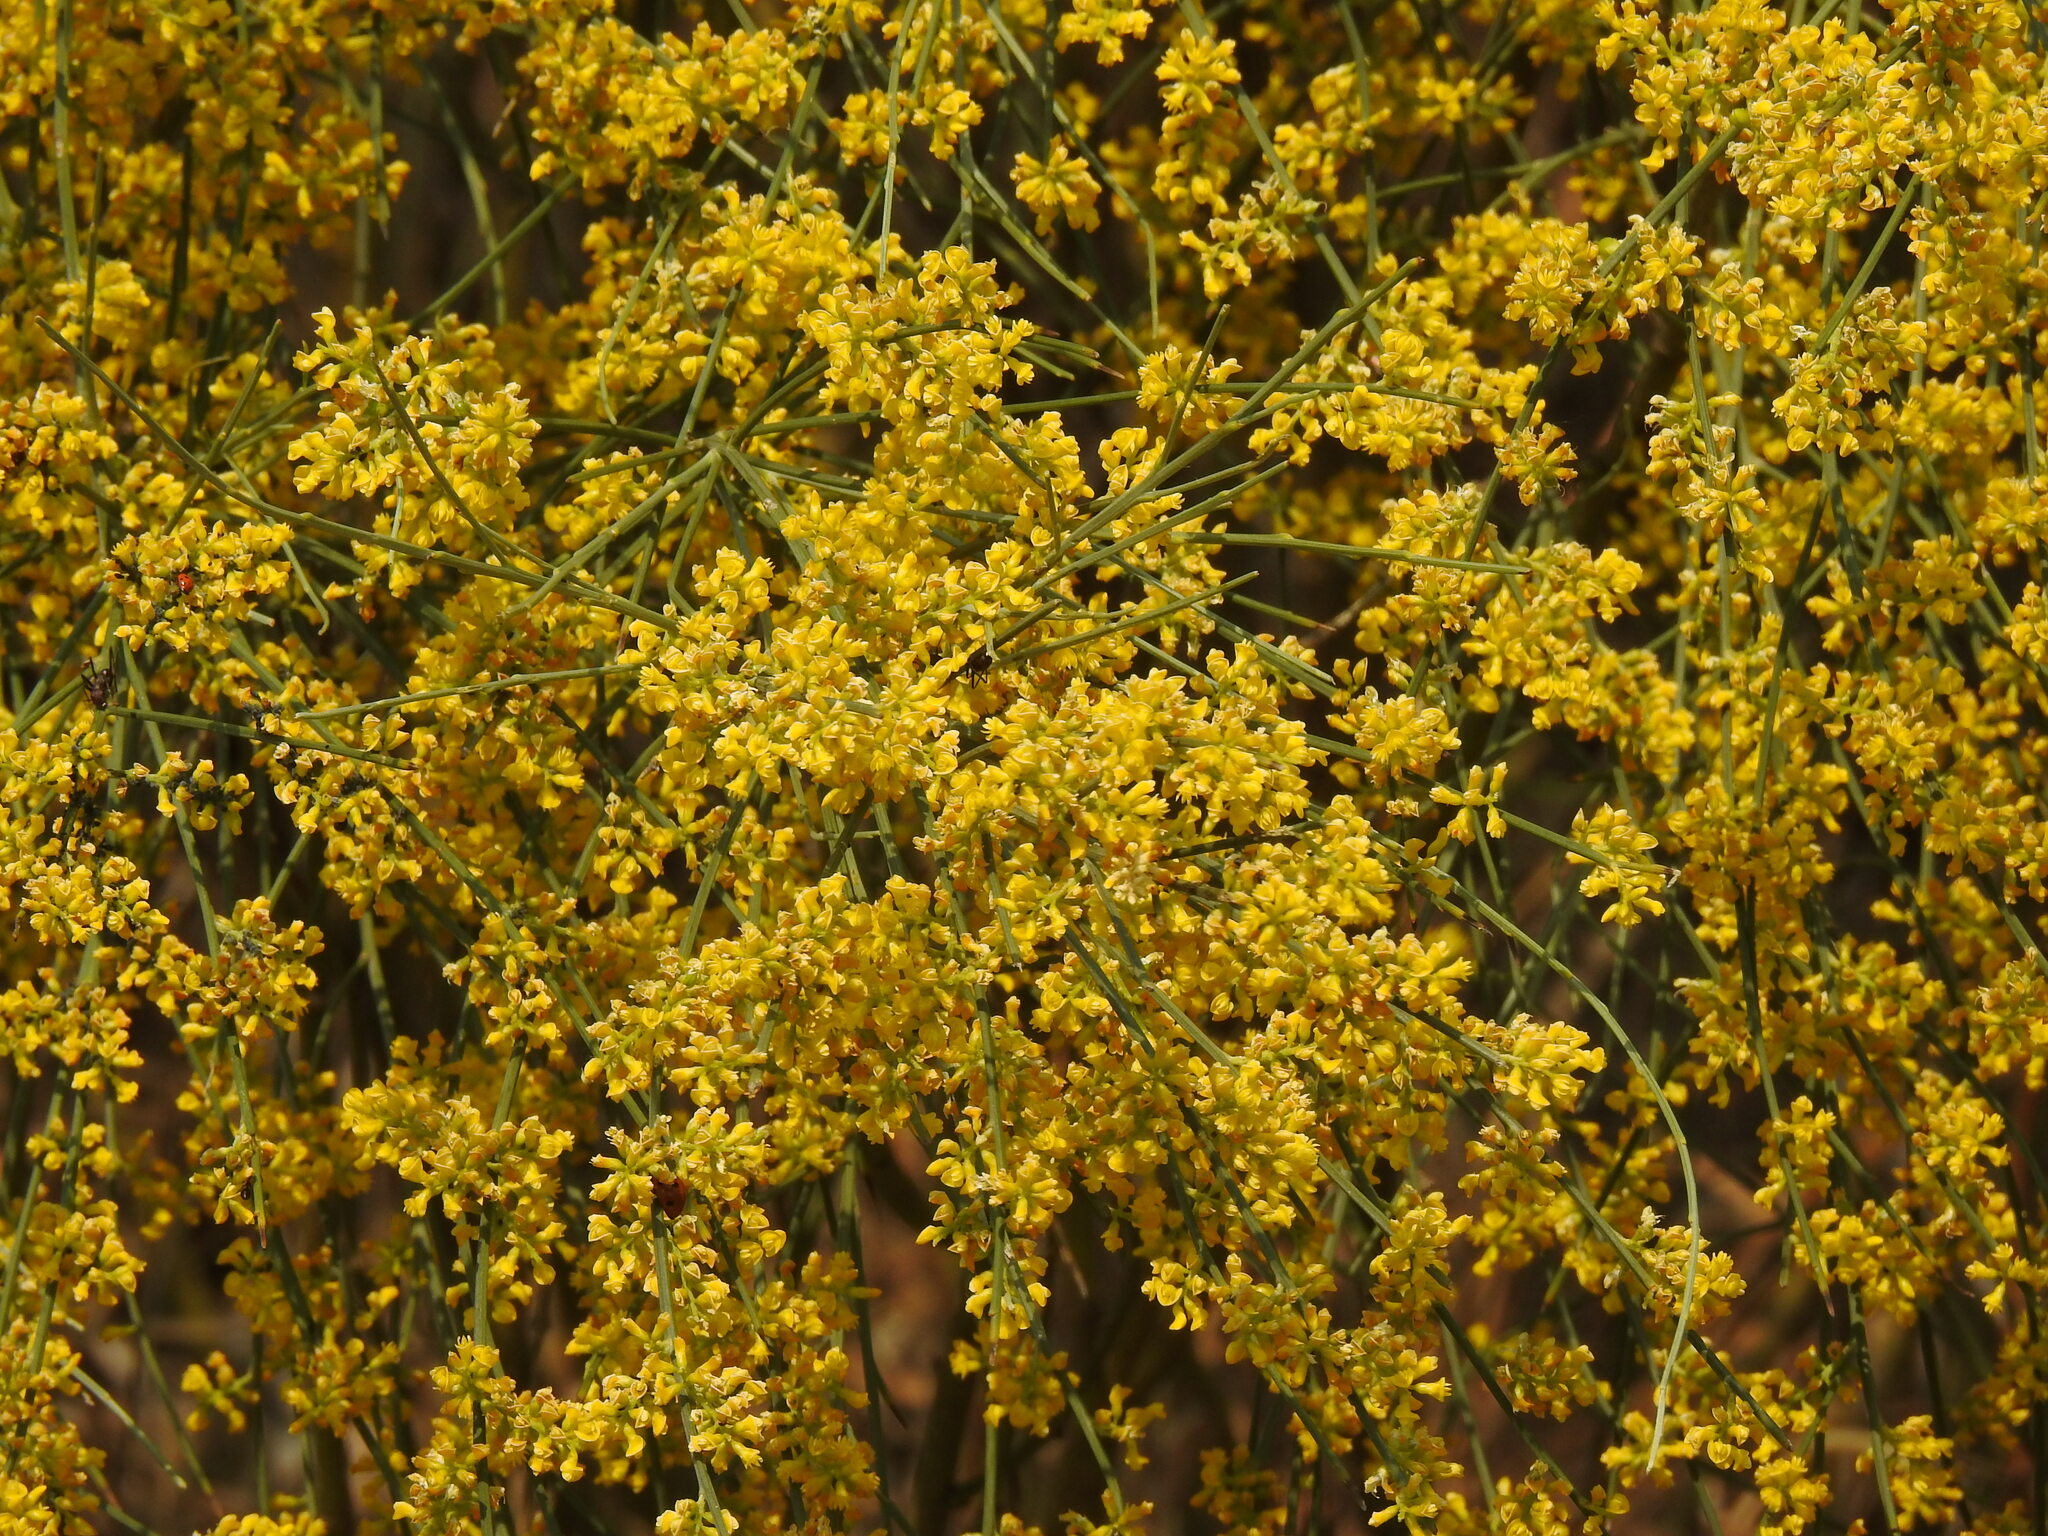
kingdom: Plantae
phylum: Tracheophyta
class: Magnoliopsida
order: Fabales
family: Fabaceae
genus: Retama
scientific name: Retama sphaerocarpa
